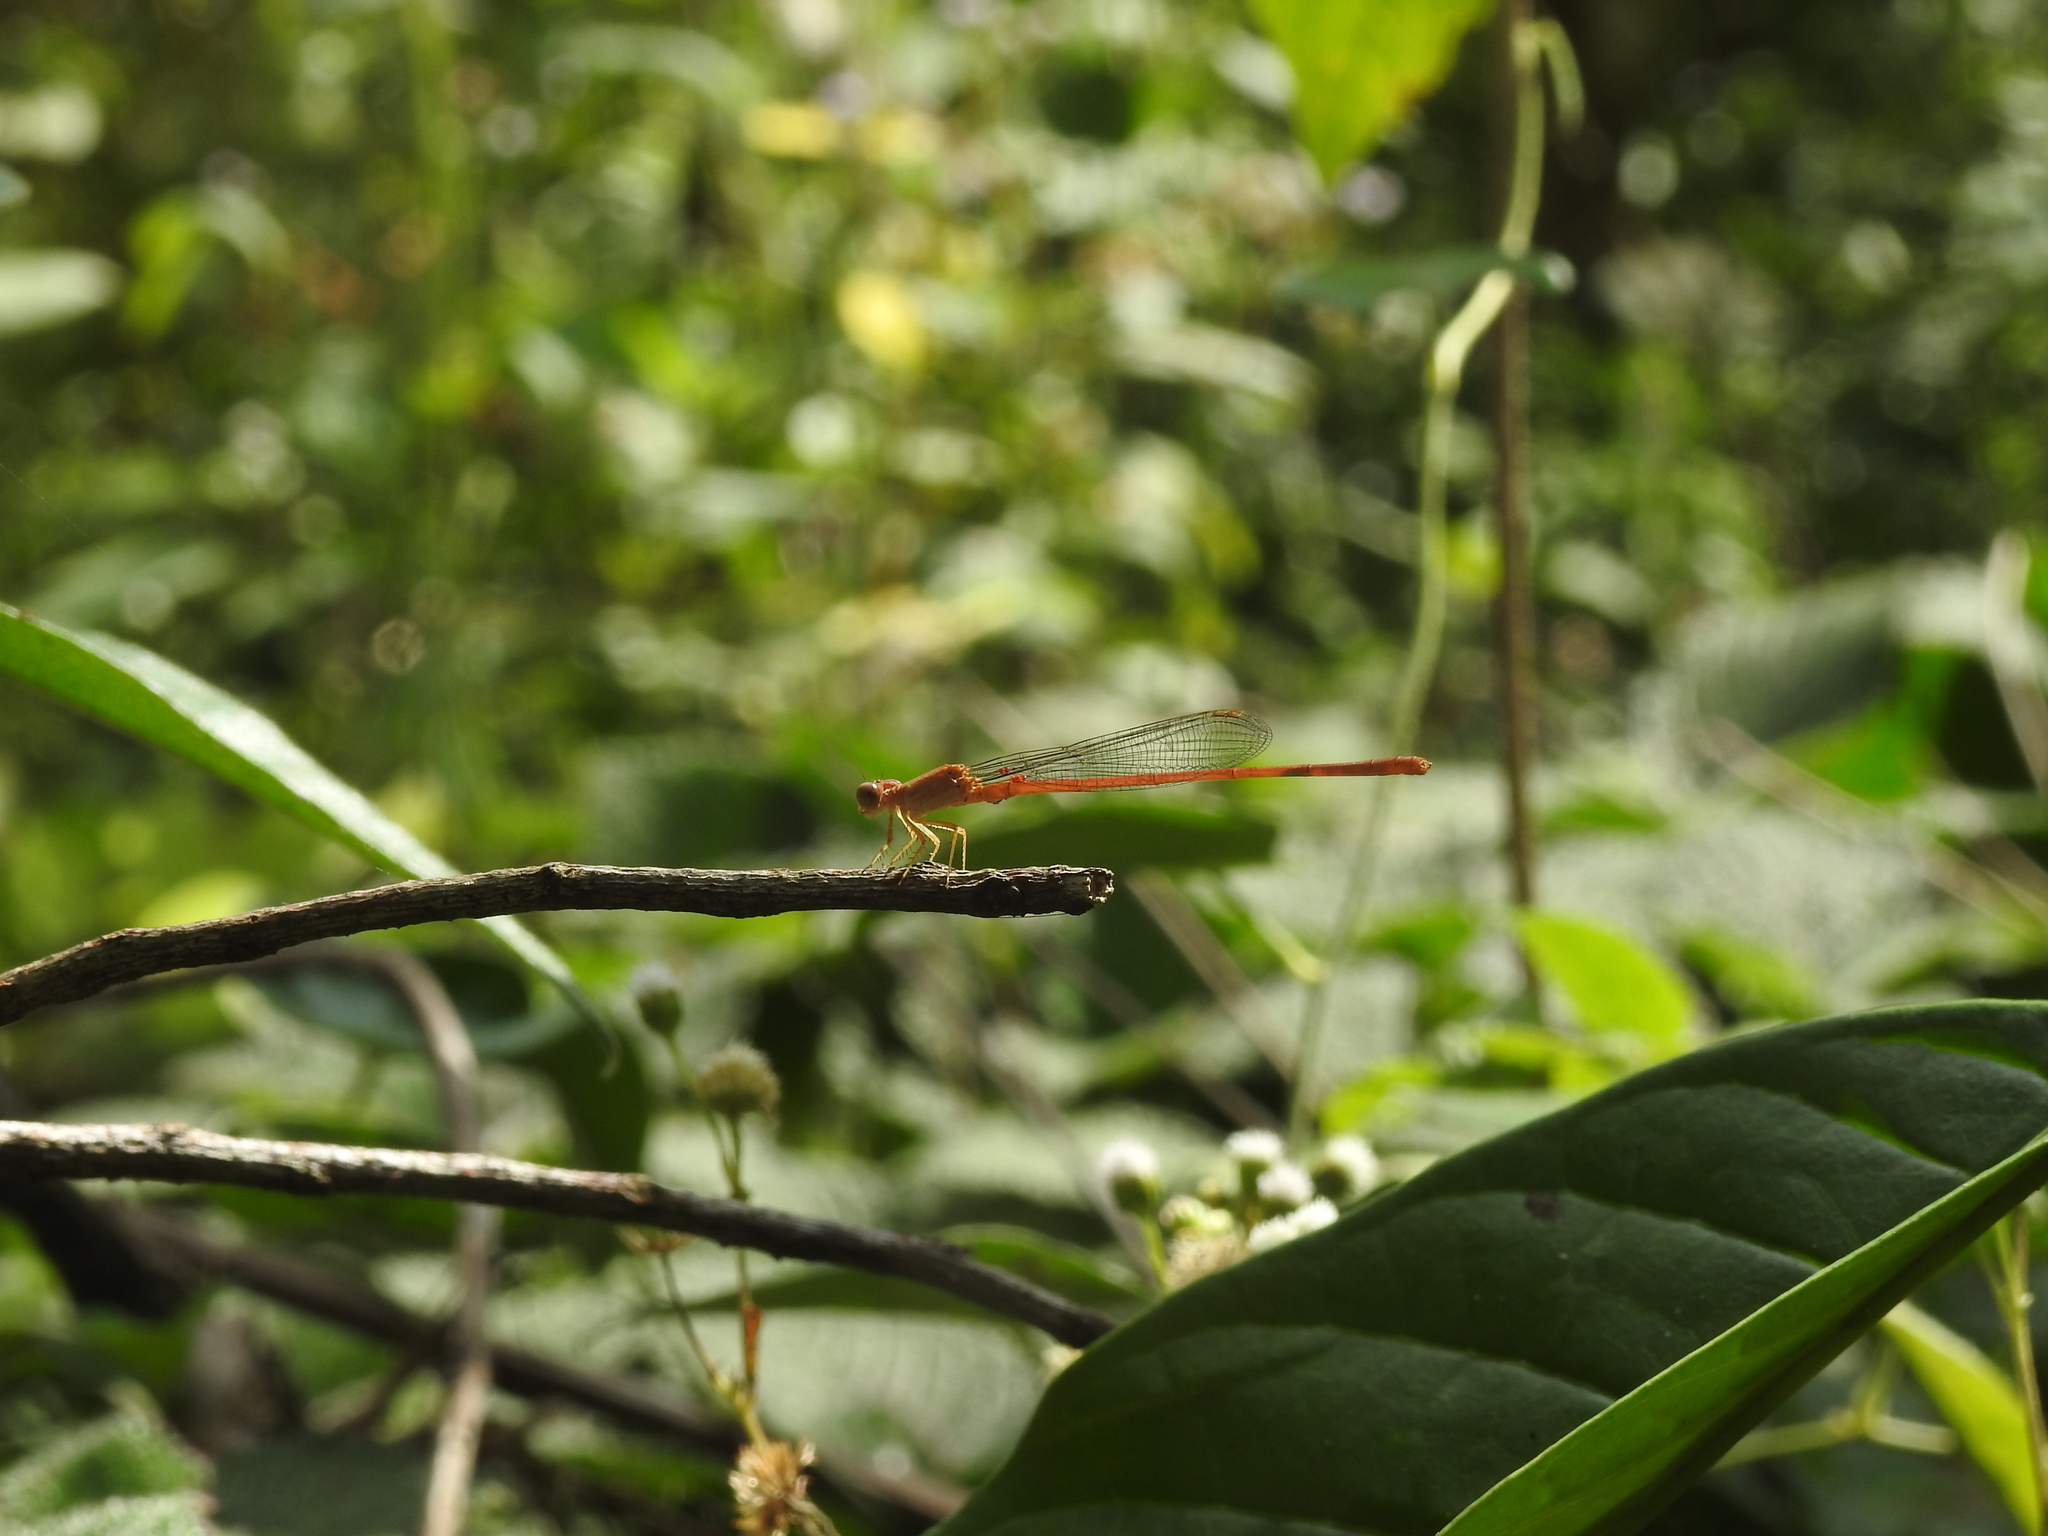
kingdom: Animalia
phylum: Arthropoda
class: Insecta
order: Odonata
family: Coenagrionidae
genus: Ceriagrion
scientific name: Ceriagrion rubiae
